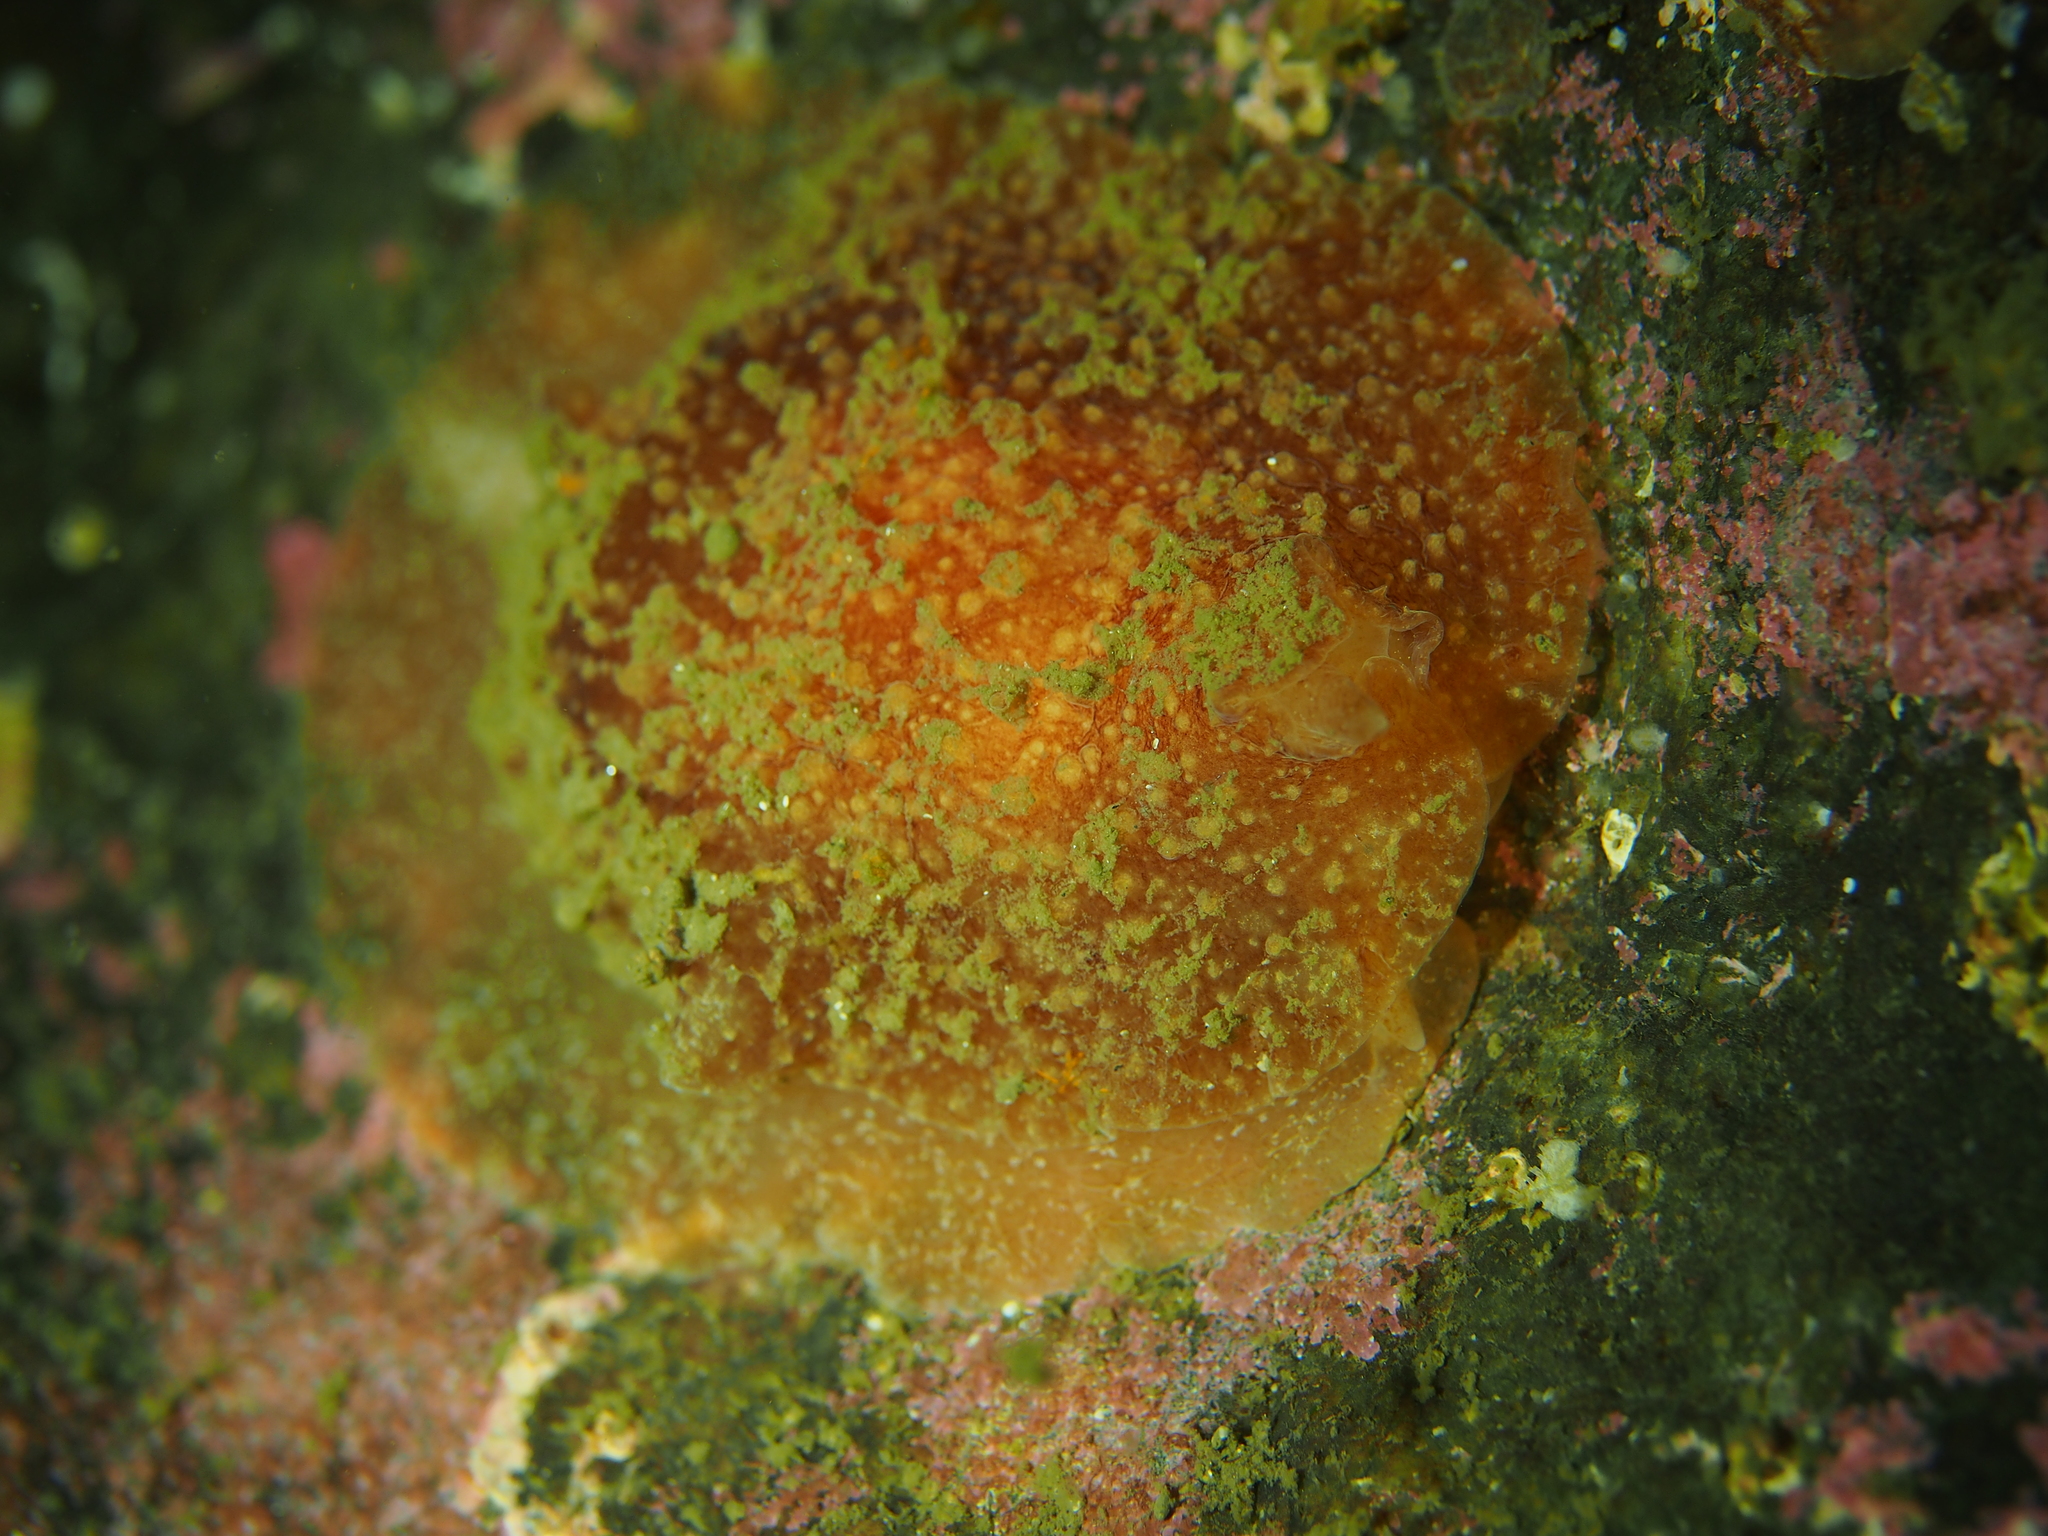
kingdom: Animalia
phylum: Mollusca
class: Gastropoda
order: Pleurobranchida
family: Pleurobranchidae
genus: Pleurobranchus
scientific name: Pleurobranchus membranaceus
